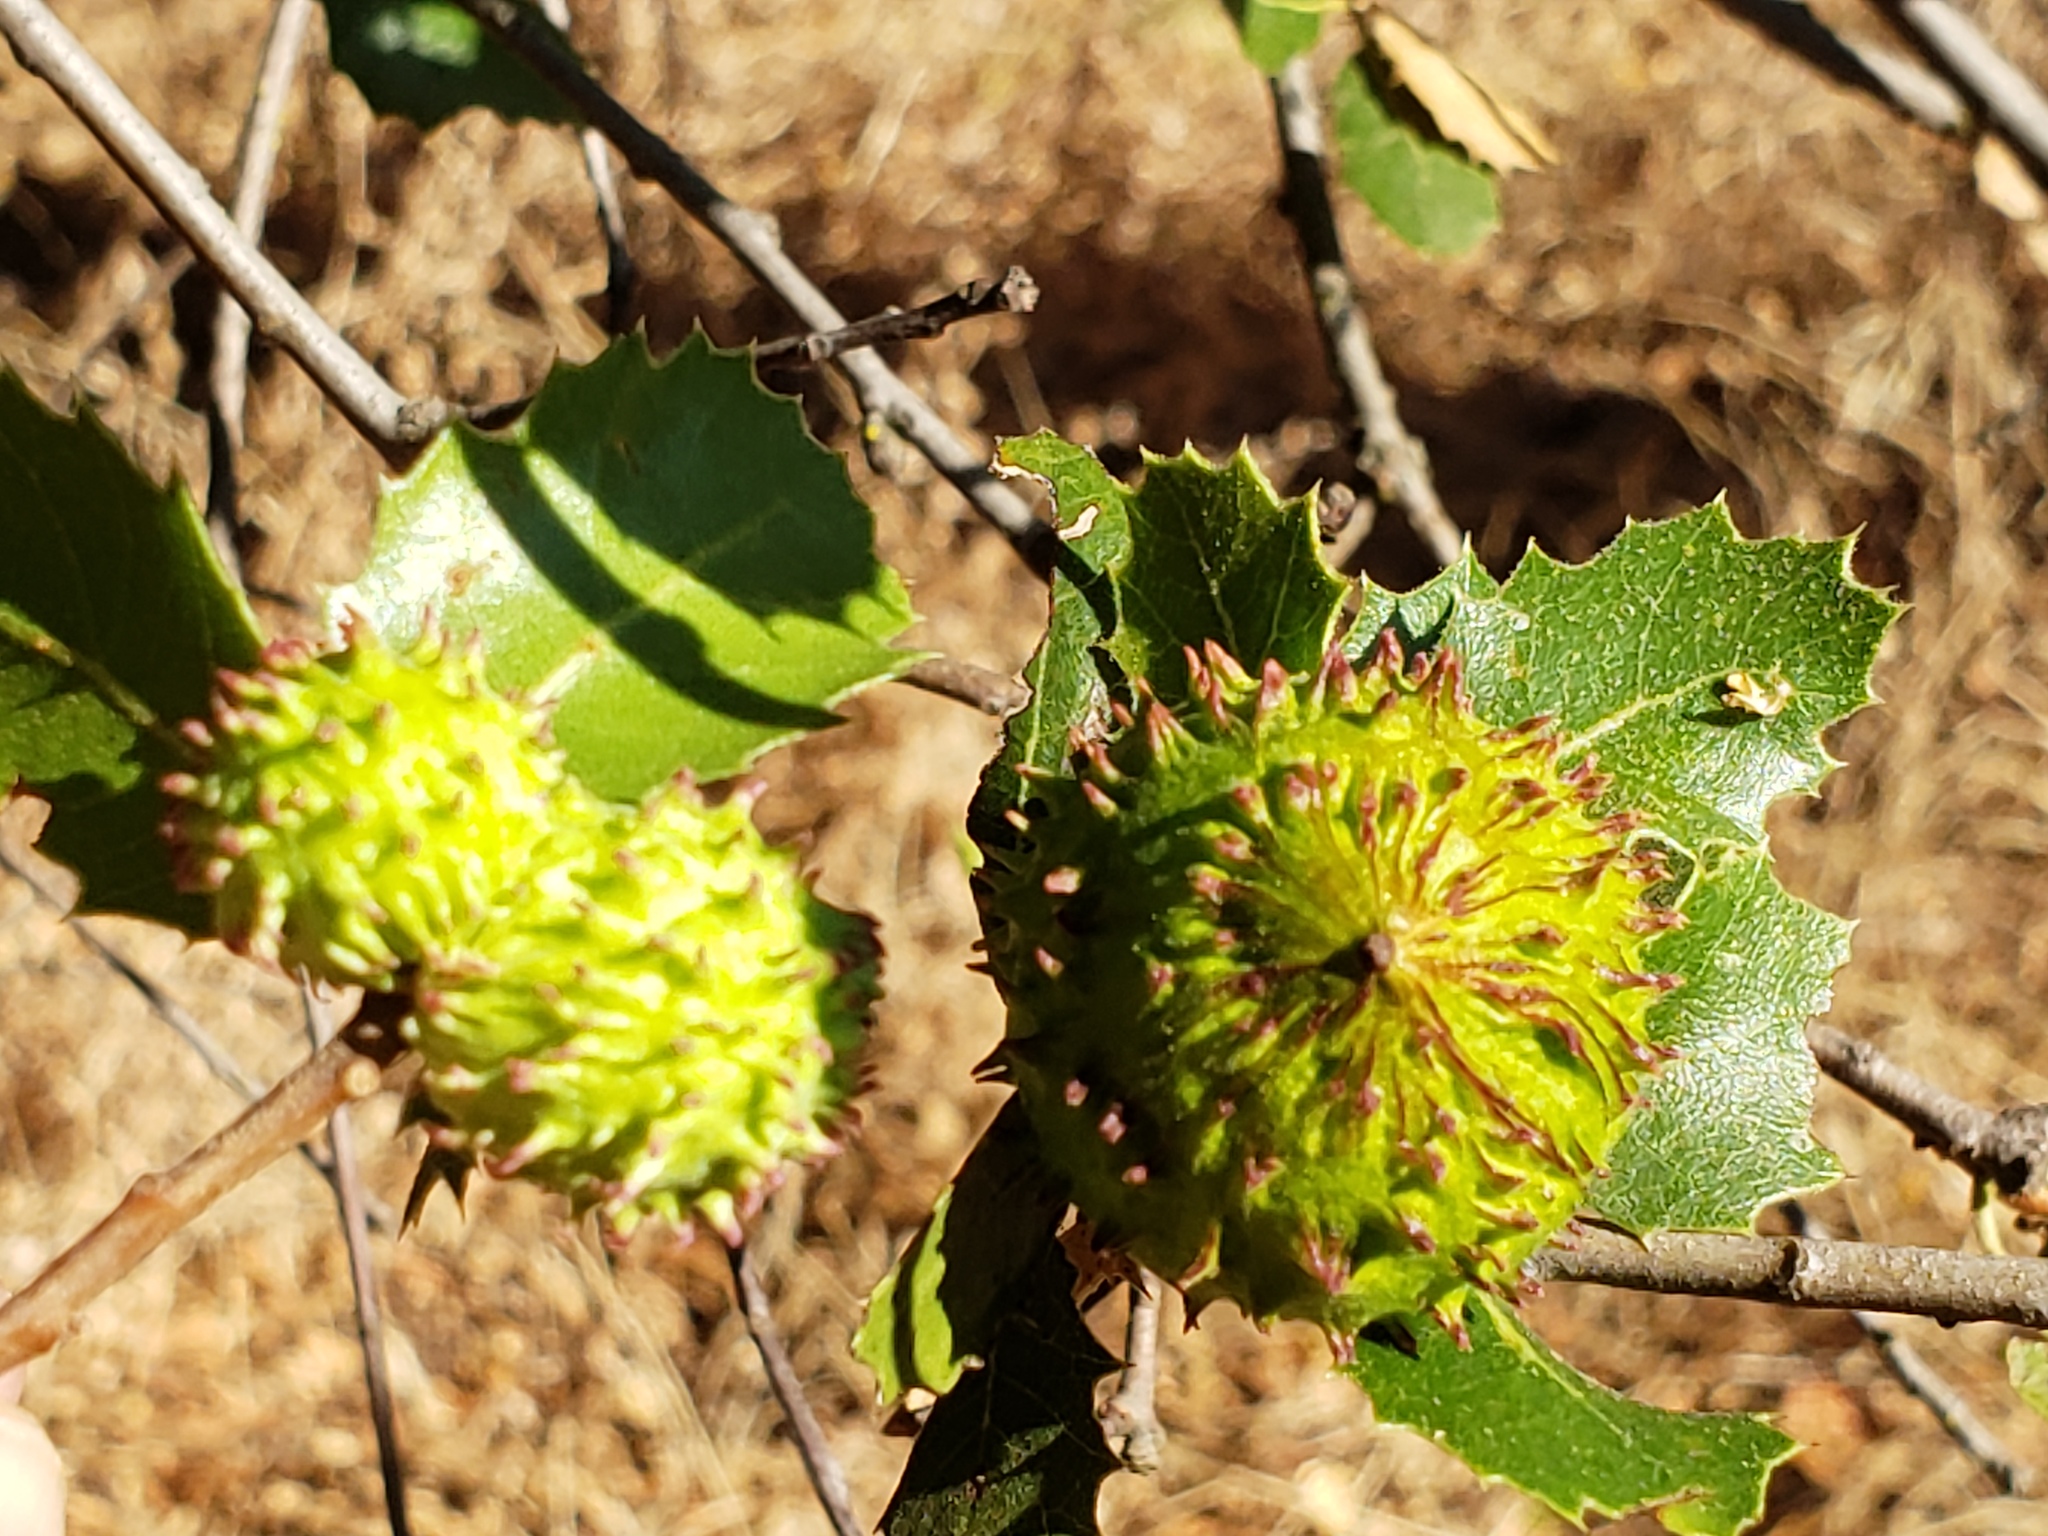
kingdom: Animalia
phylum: Arthropoda
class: Insecta
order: Hymenoptera
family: Cynipidae
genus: Amphibolips
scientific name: Amphibolips quercuspomiformis
